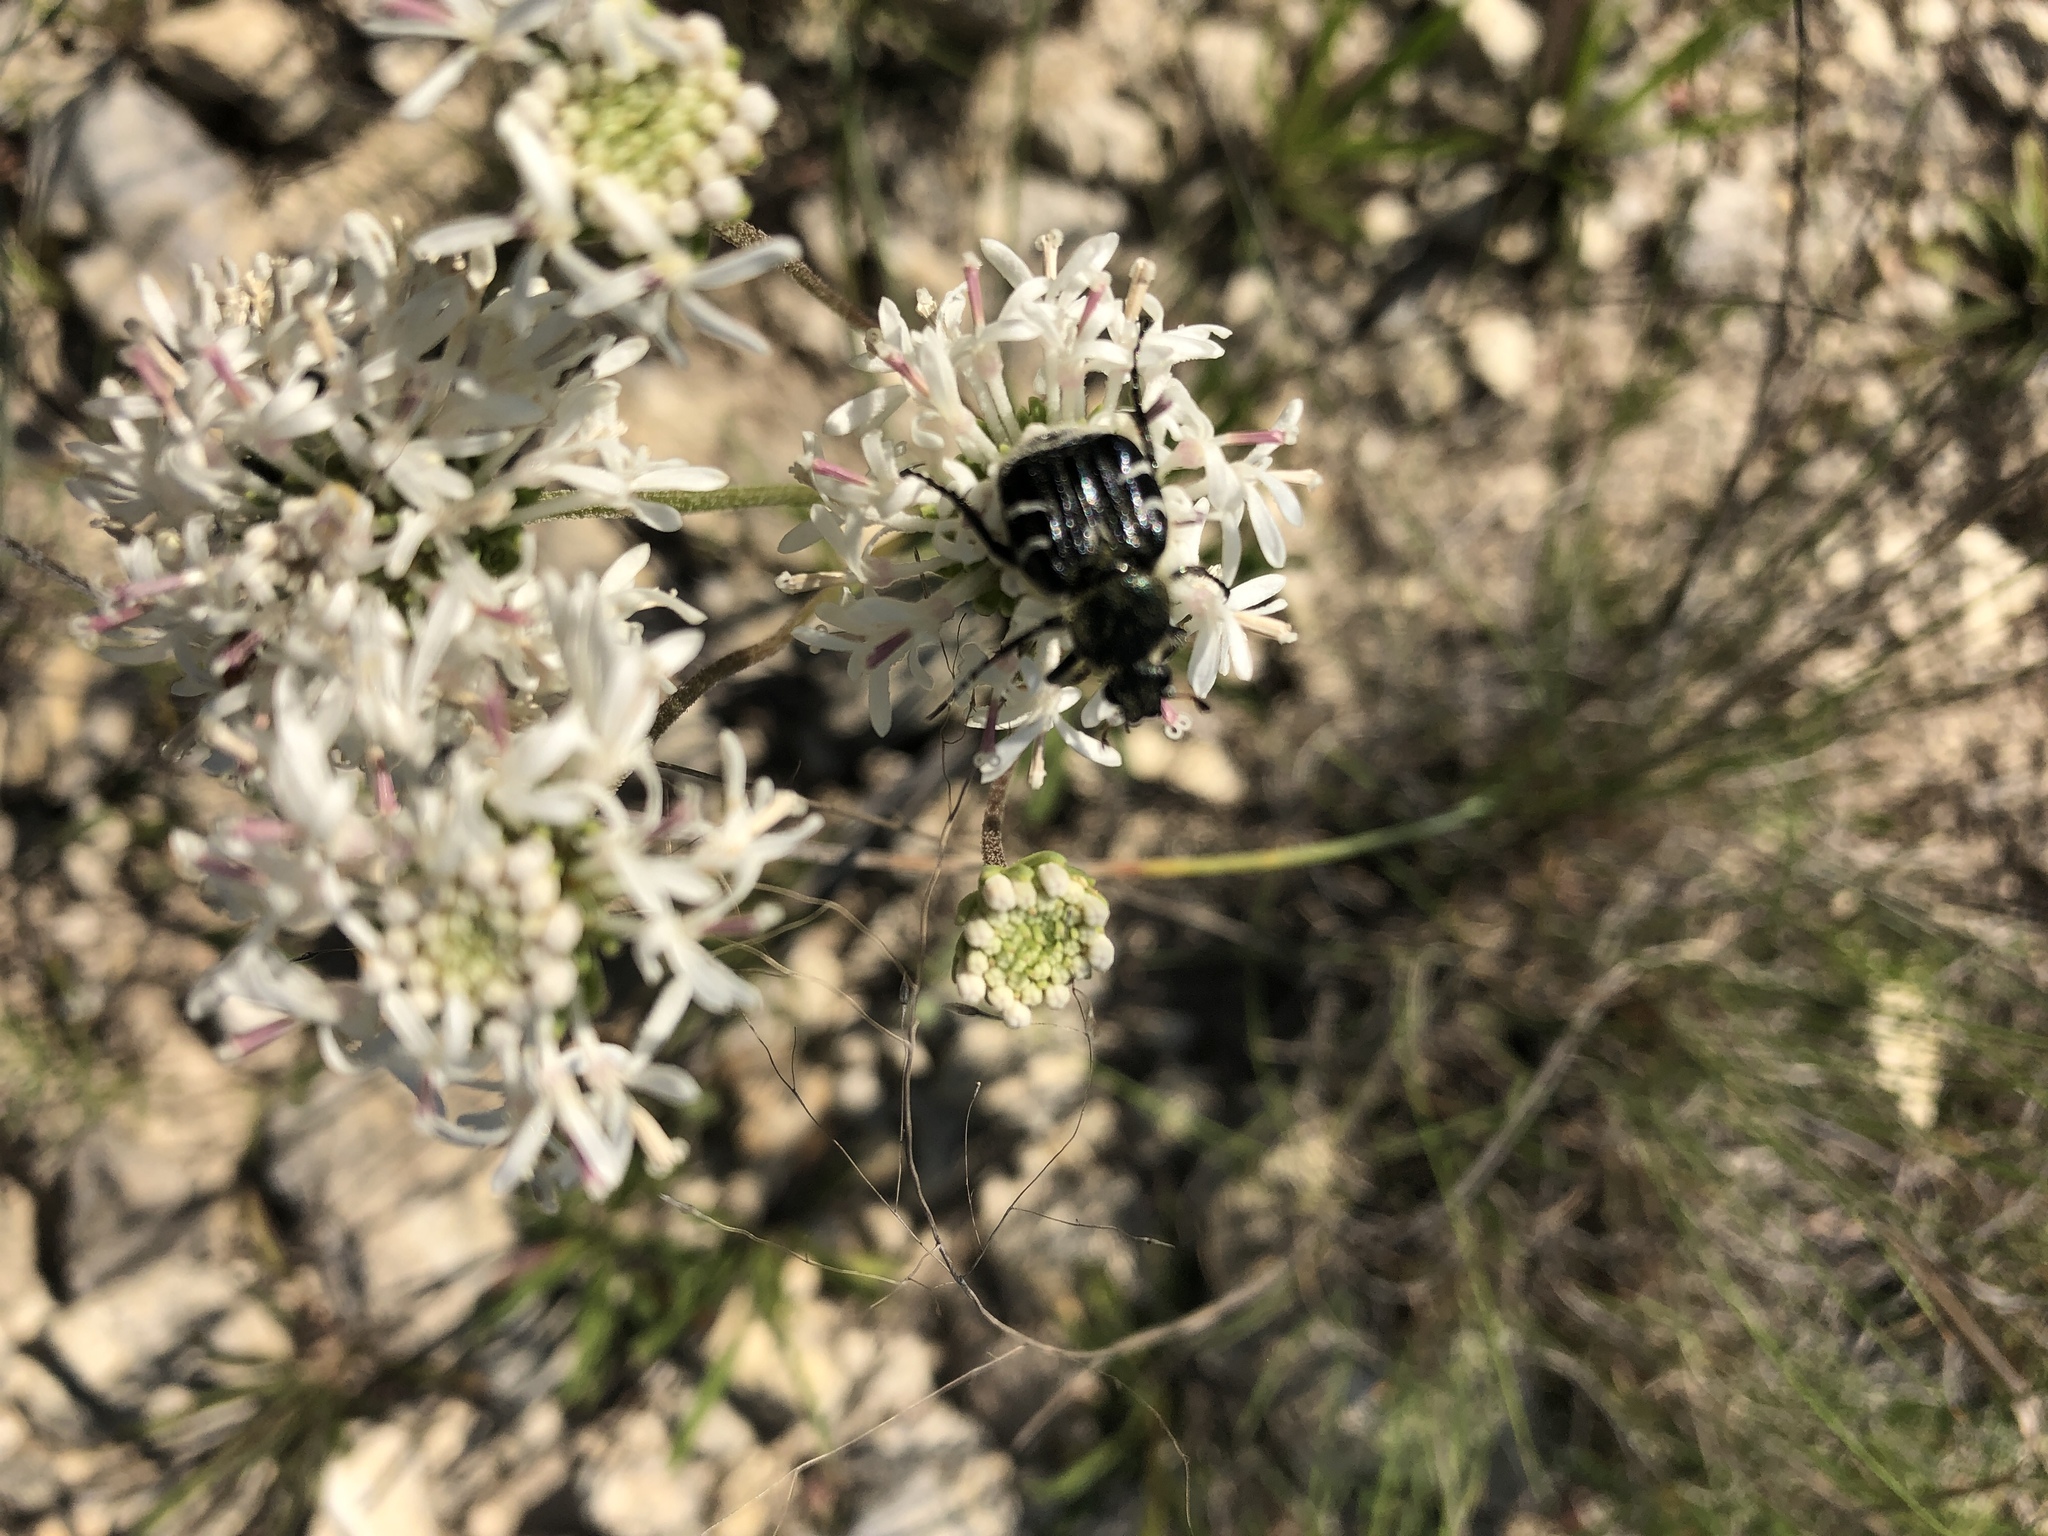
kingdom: Animalia
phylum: Arthropoda
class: Insecta
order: Coleoptera
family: Scarabaeidae
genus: Trichiotinus
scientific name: Trichiotinus texanus
